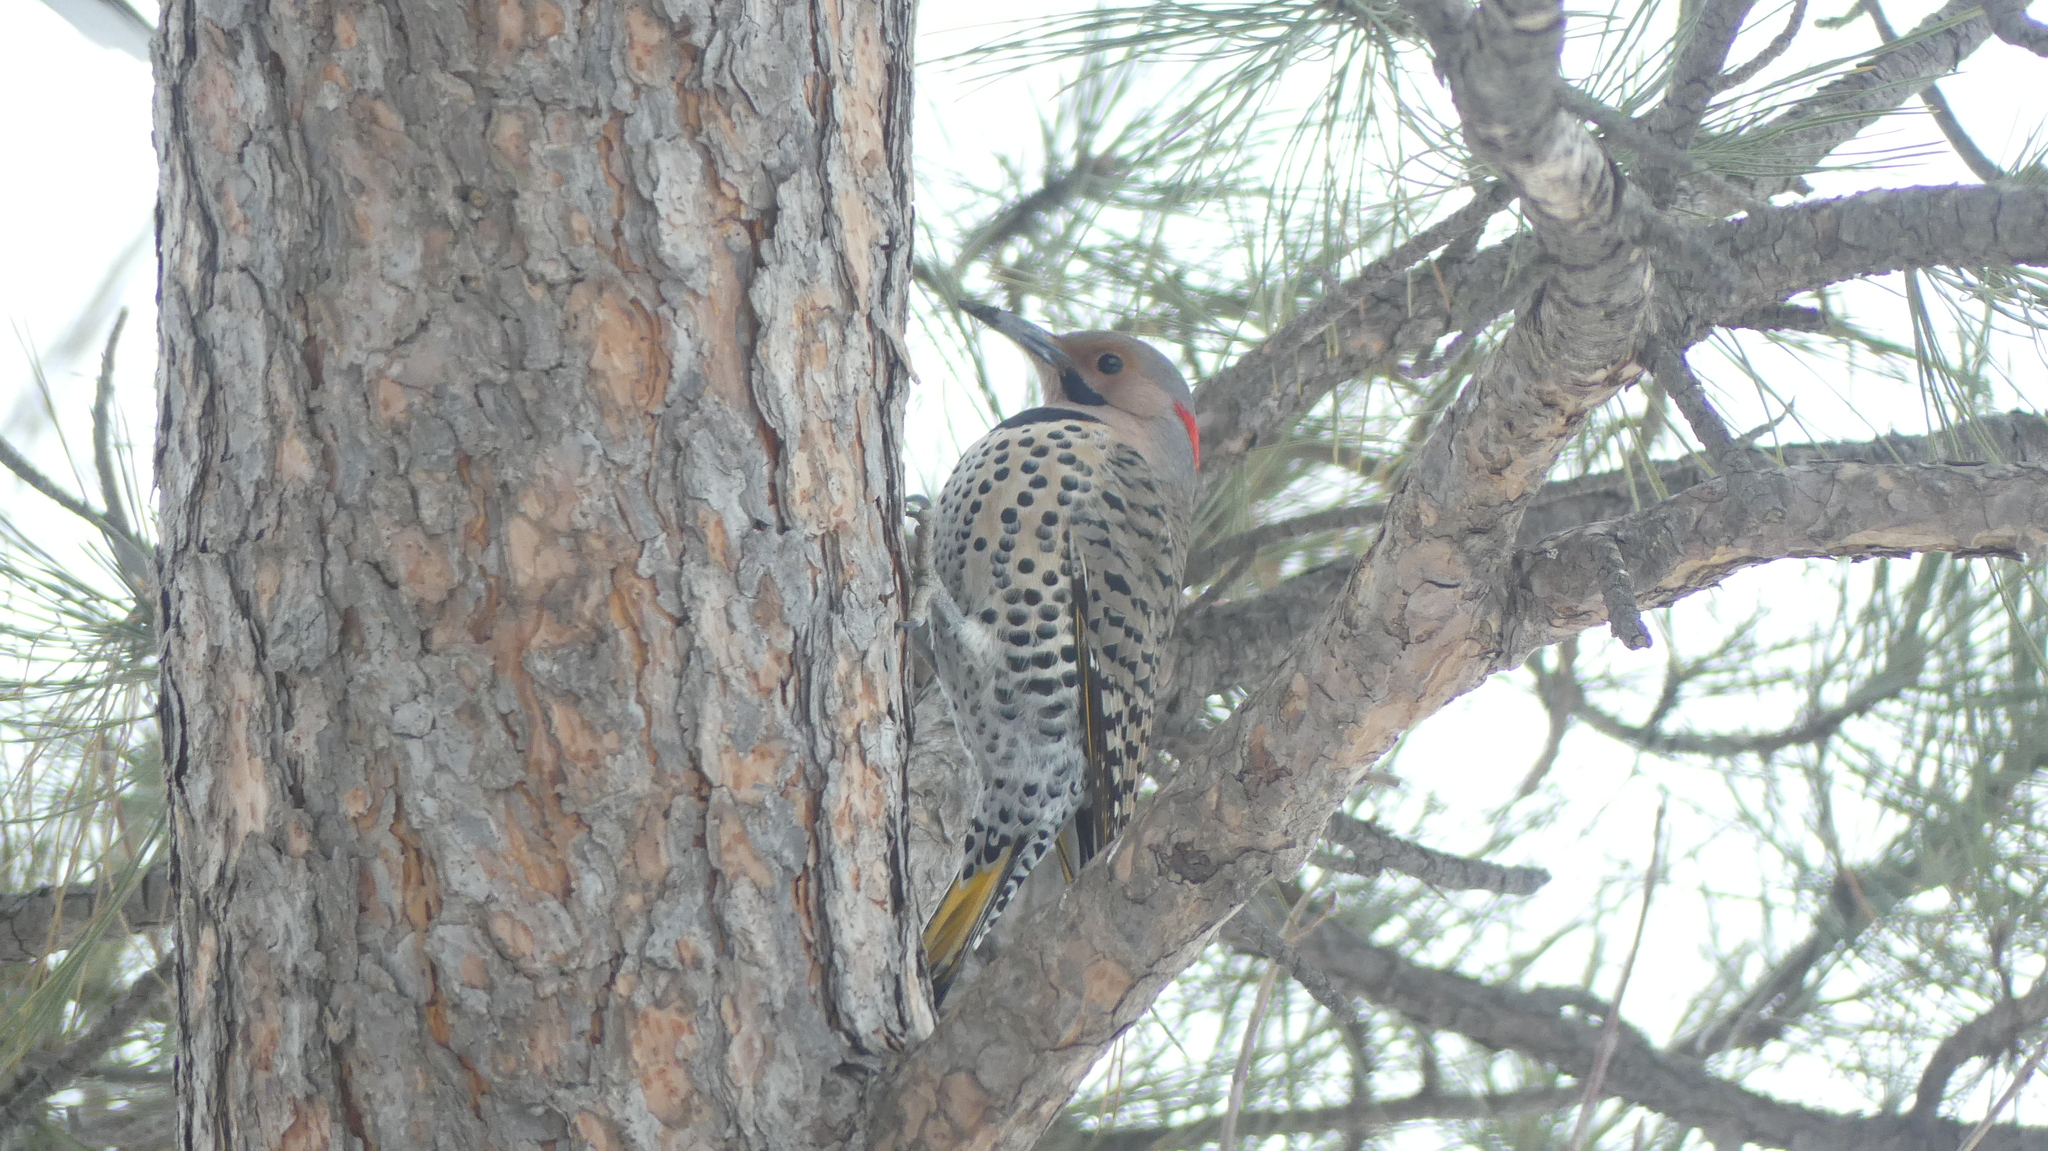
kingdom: Animalia
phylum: Chordata
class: Aves
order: Piciformes
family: Picidae
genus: Colaptes
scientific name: Colaptes auratus
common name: Northern flicker
